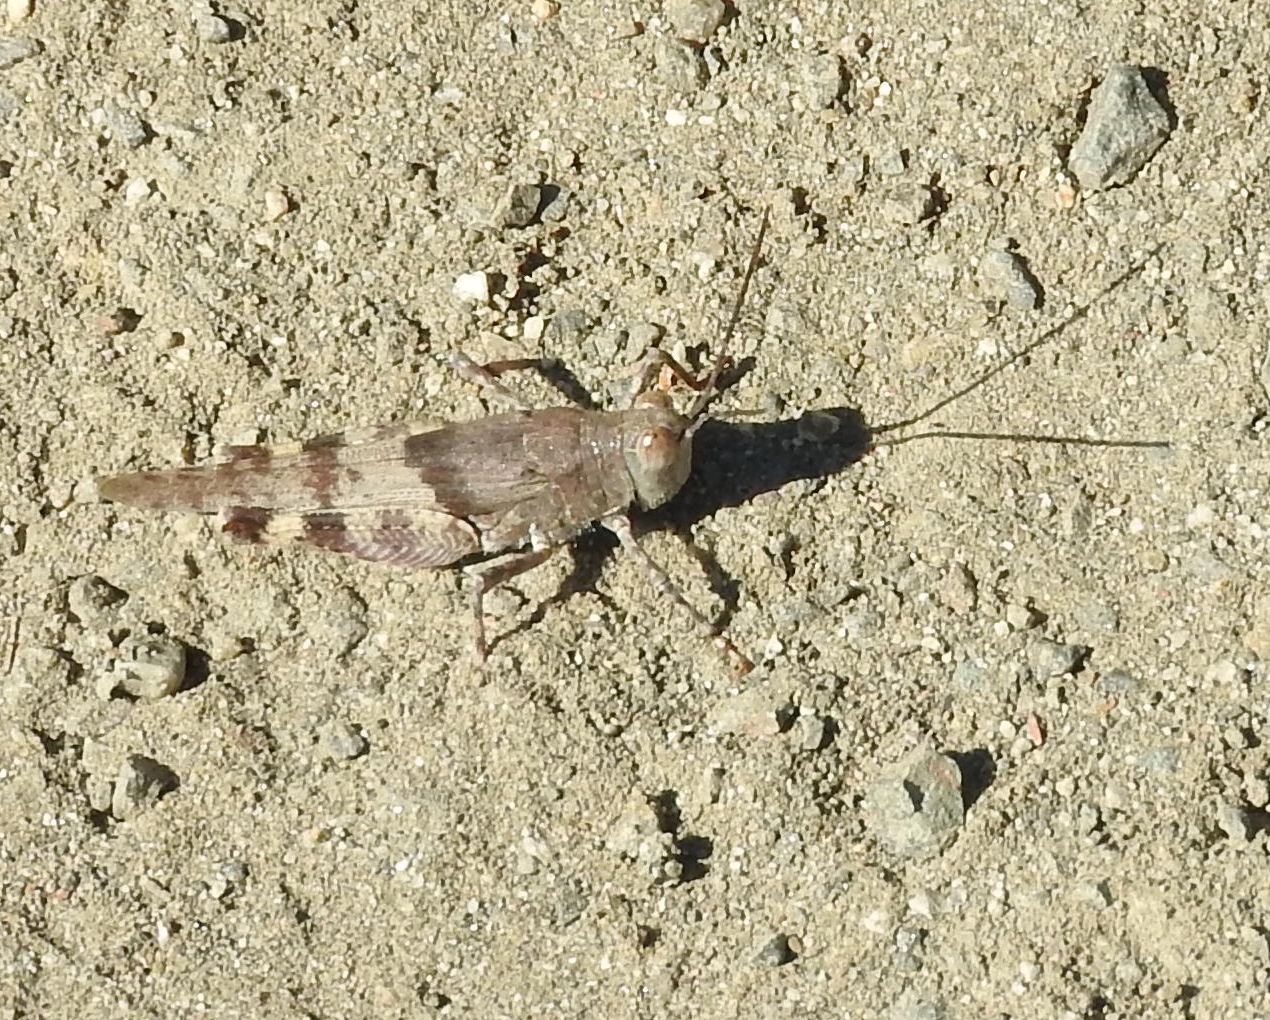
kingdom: Animalia
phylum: Arthropoda
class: Insecta
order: Orthoptera
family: Acrididae
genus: Heliastus
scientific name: Heliastus benjamini
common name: Arroyo grasshopper
